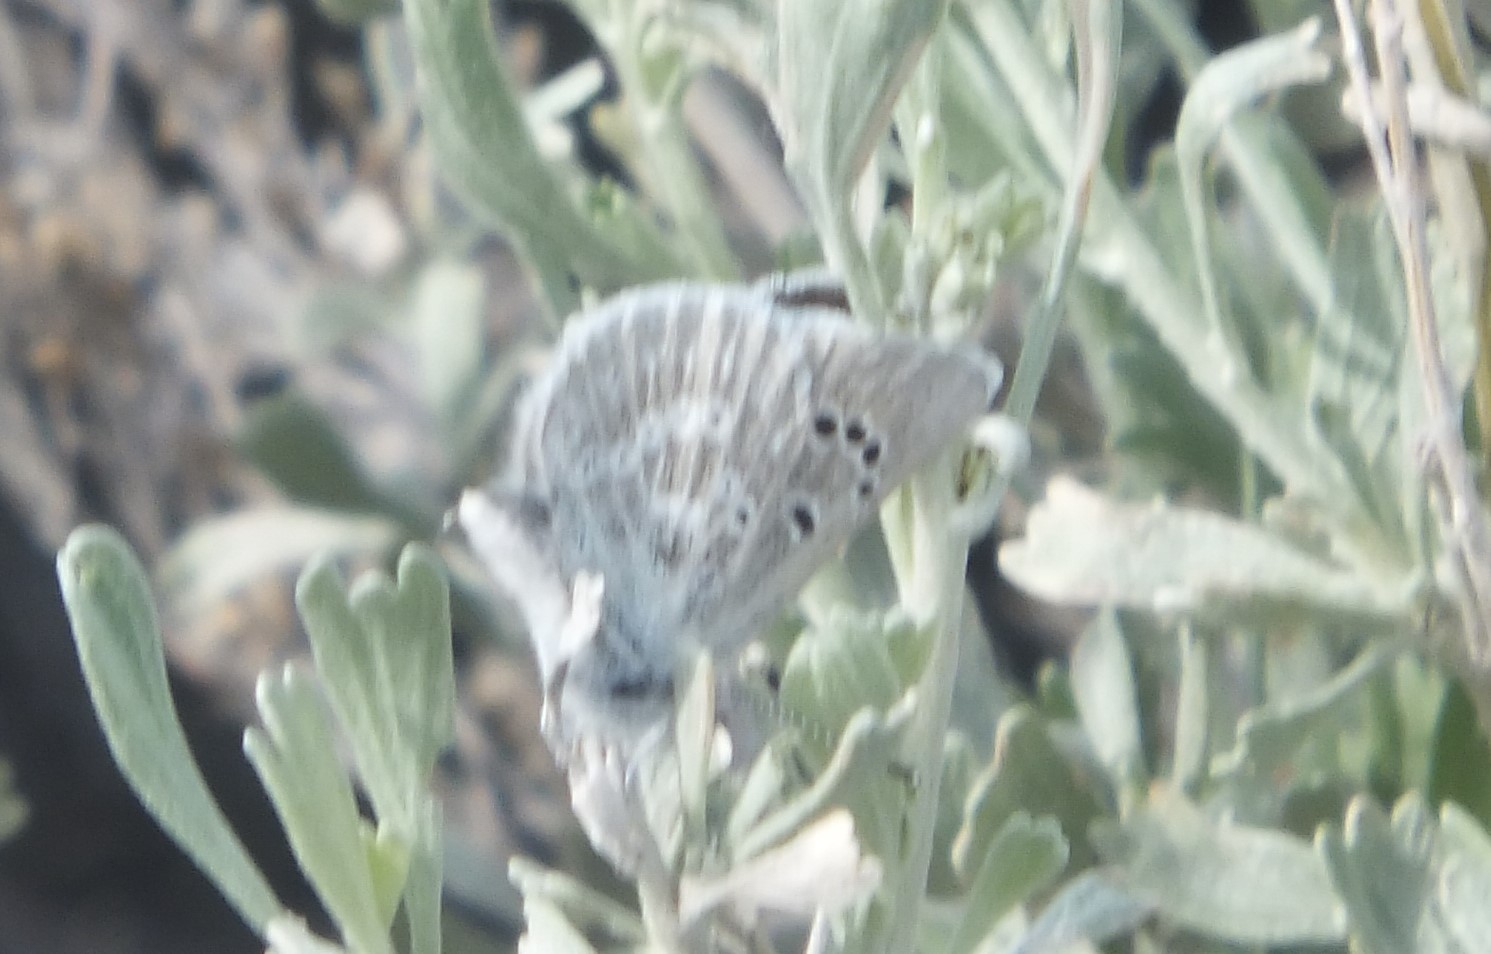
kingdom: Animalia
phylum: Arthropoda
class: Insecta
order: Lepidoptera
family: Lycaenidae
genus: Icaricia
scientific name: Icaricia icarioides
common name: Boisduval's blue
